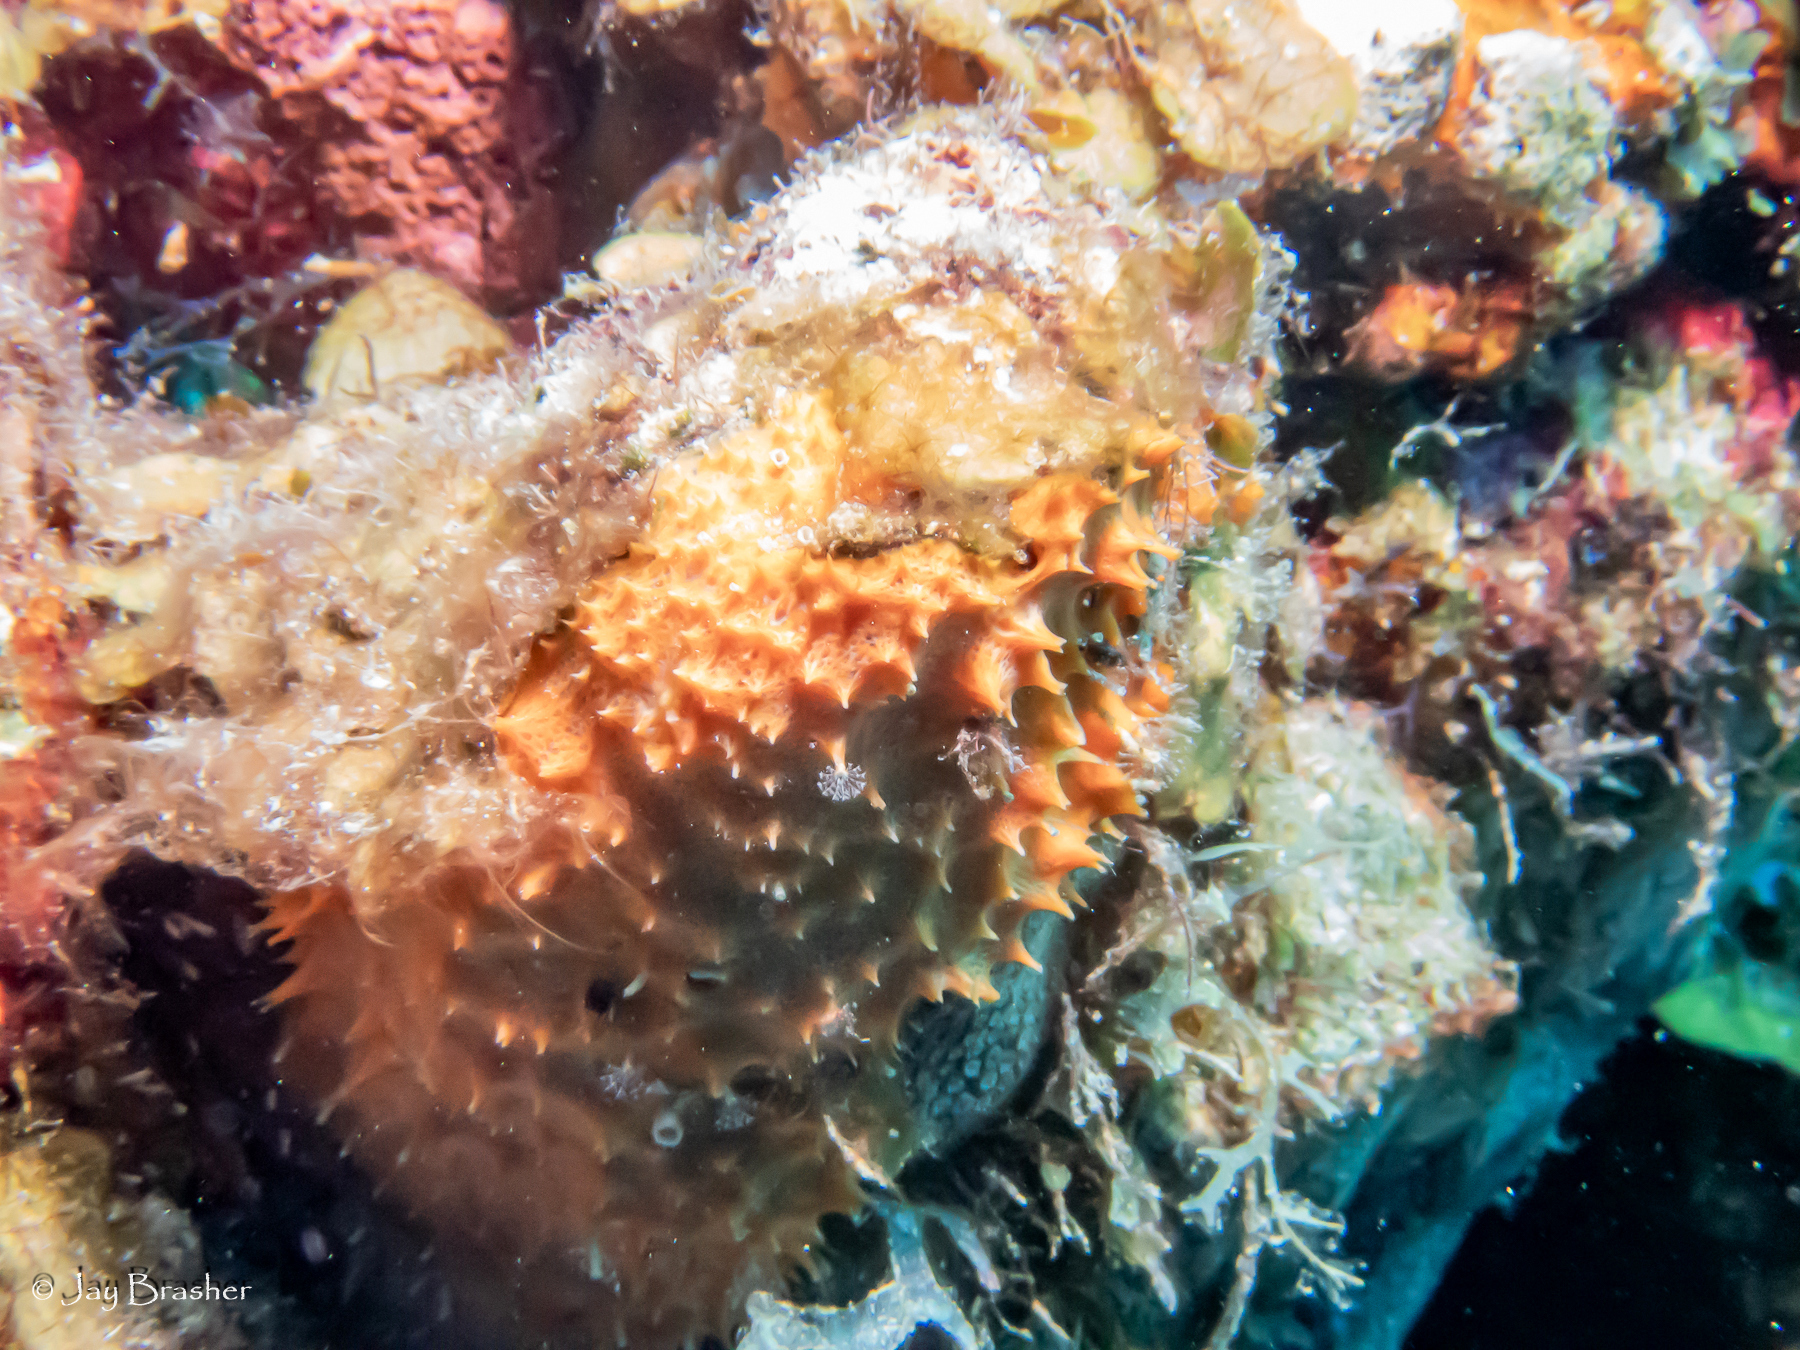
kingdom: Animalia
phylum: Porifera
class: Demospongiae
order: Scopalinida
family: Scopalinidae
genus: Scopalina
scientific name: Scopalina ruetzleri
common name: Orange lumpy encrusting sponge
